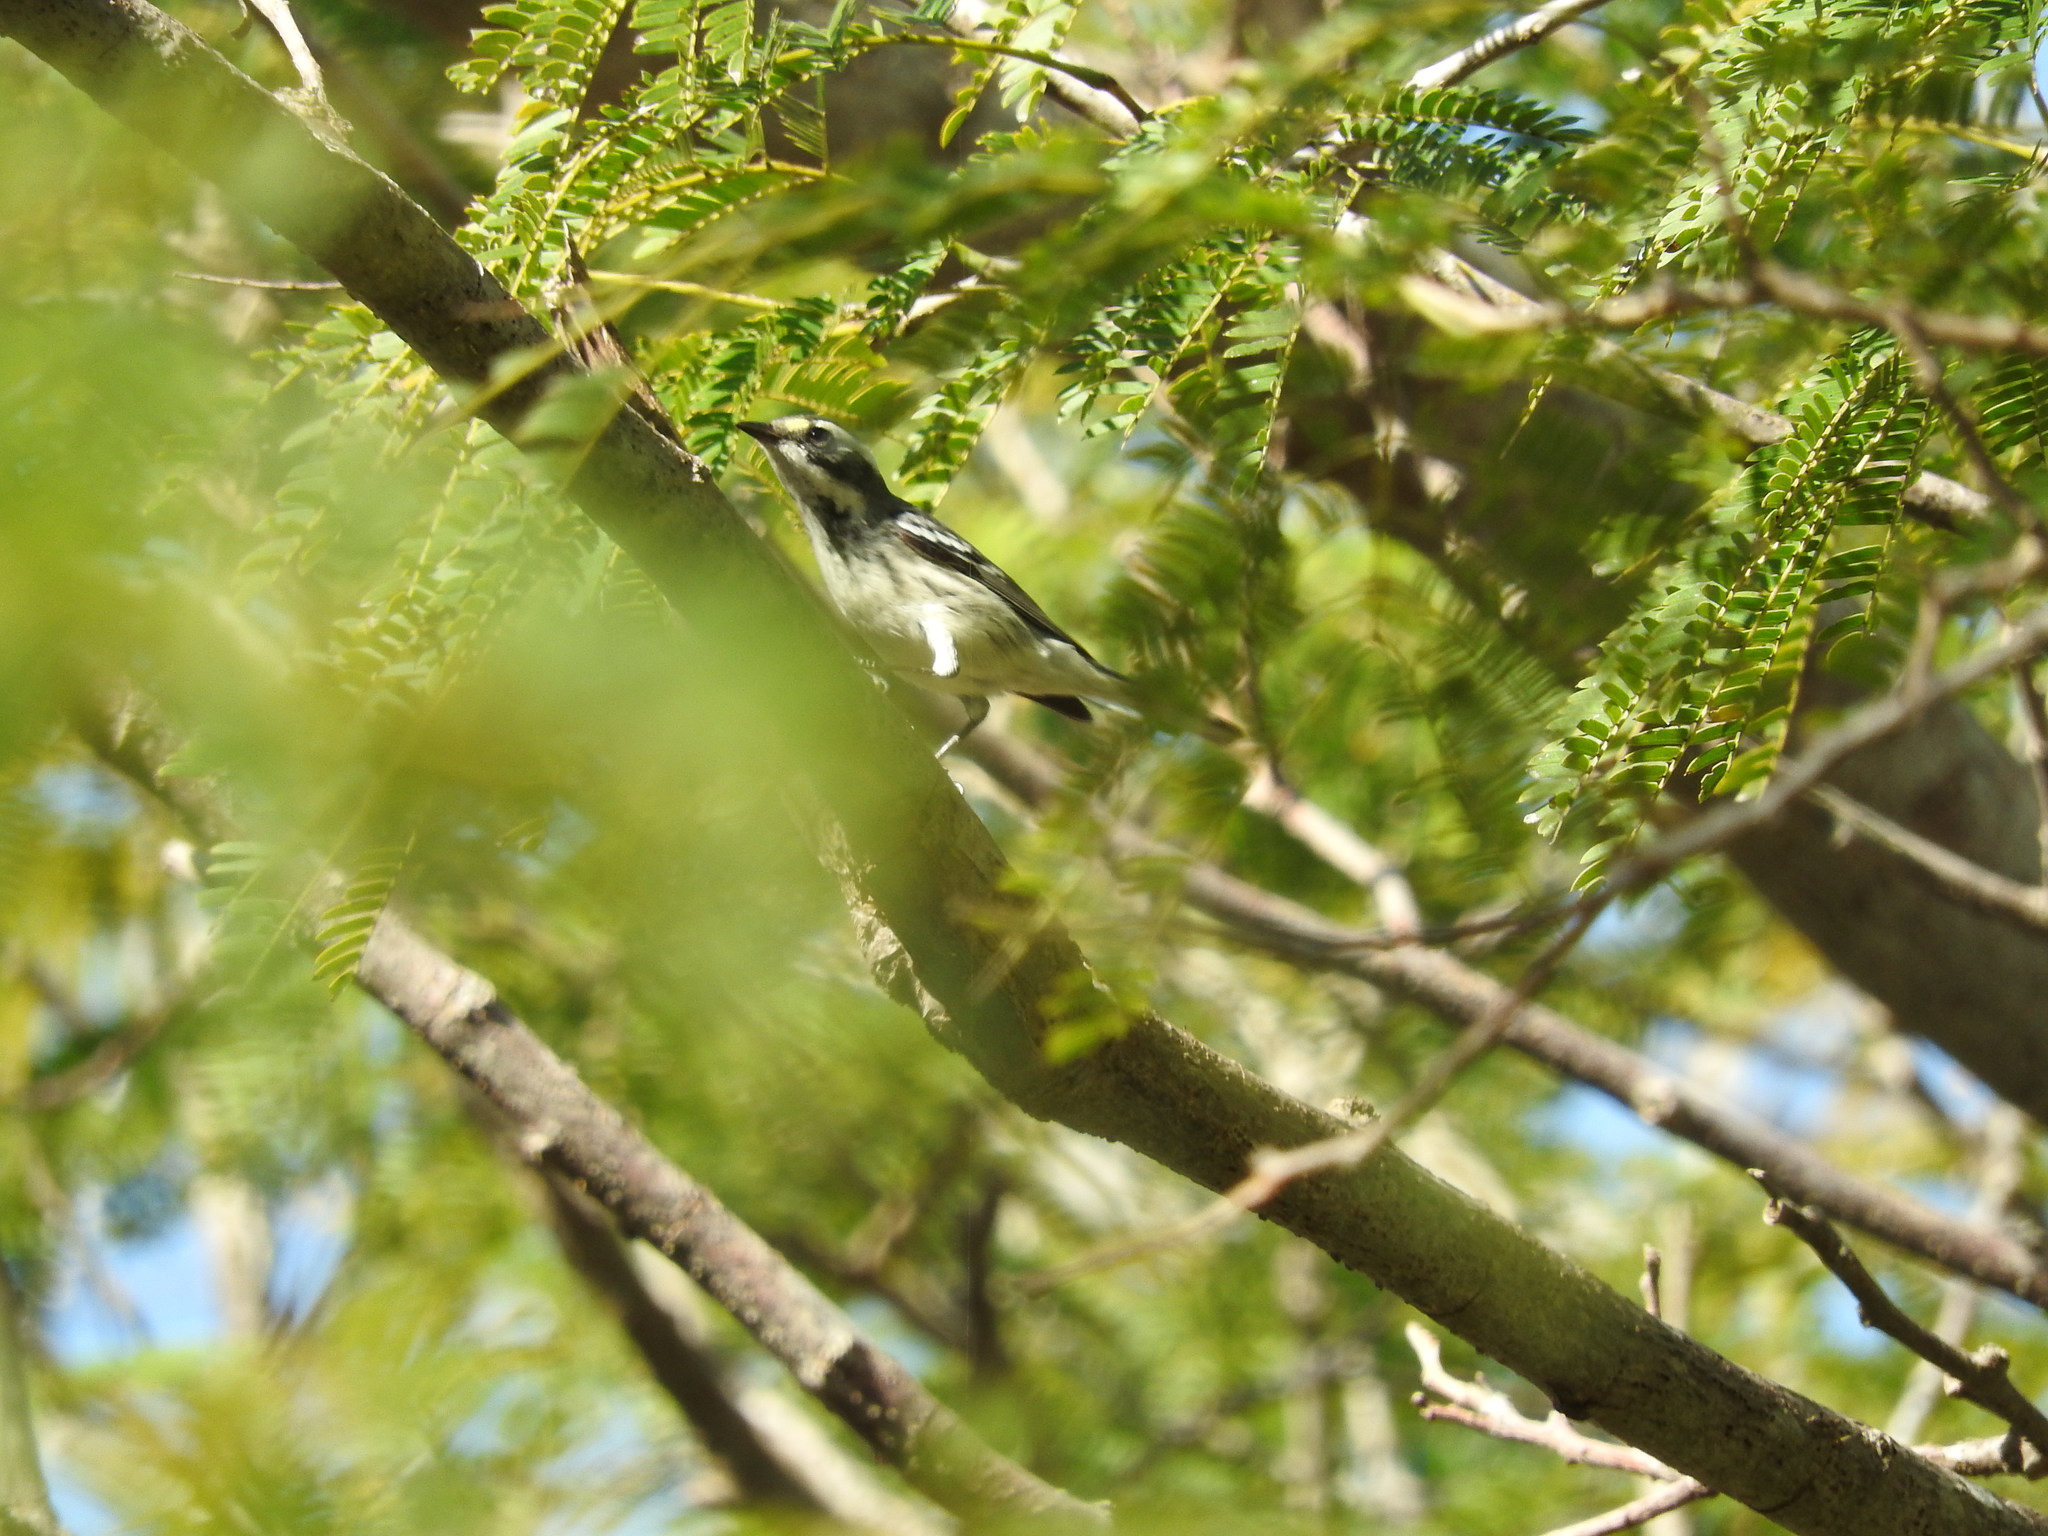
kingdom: Animalia
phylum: Chordata
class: Aves
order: Passeriformes
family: Parulidae
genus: Setophaga
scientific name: Setophaga nigrescens
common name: Black-throated gray warbler
